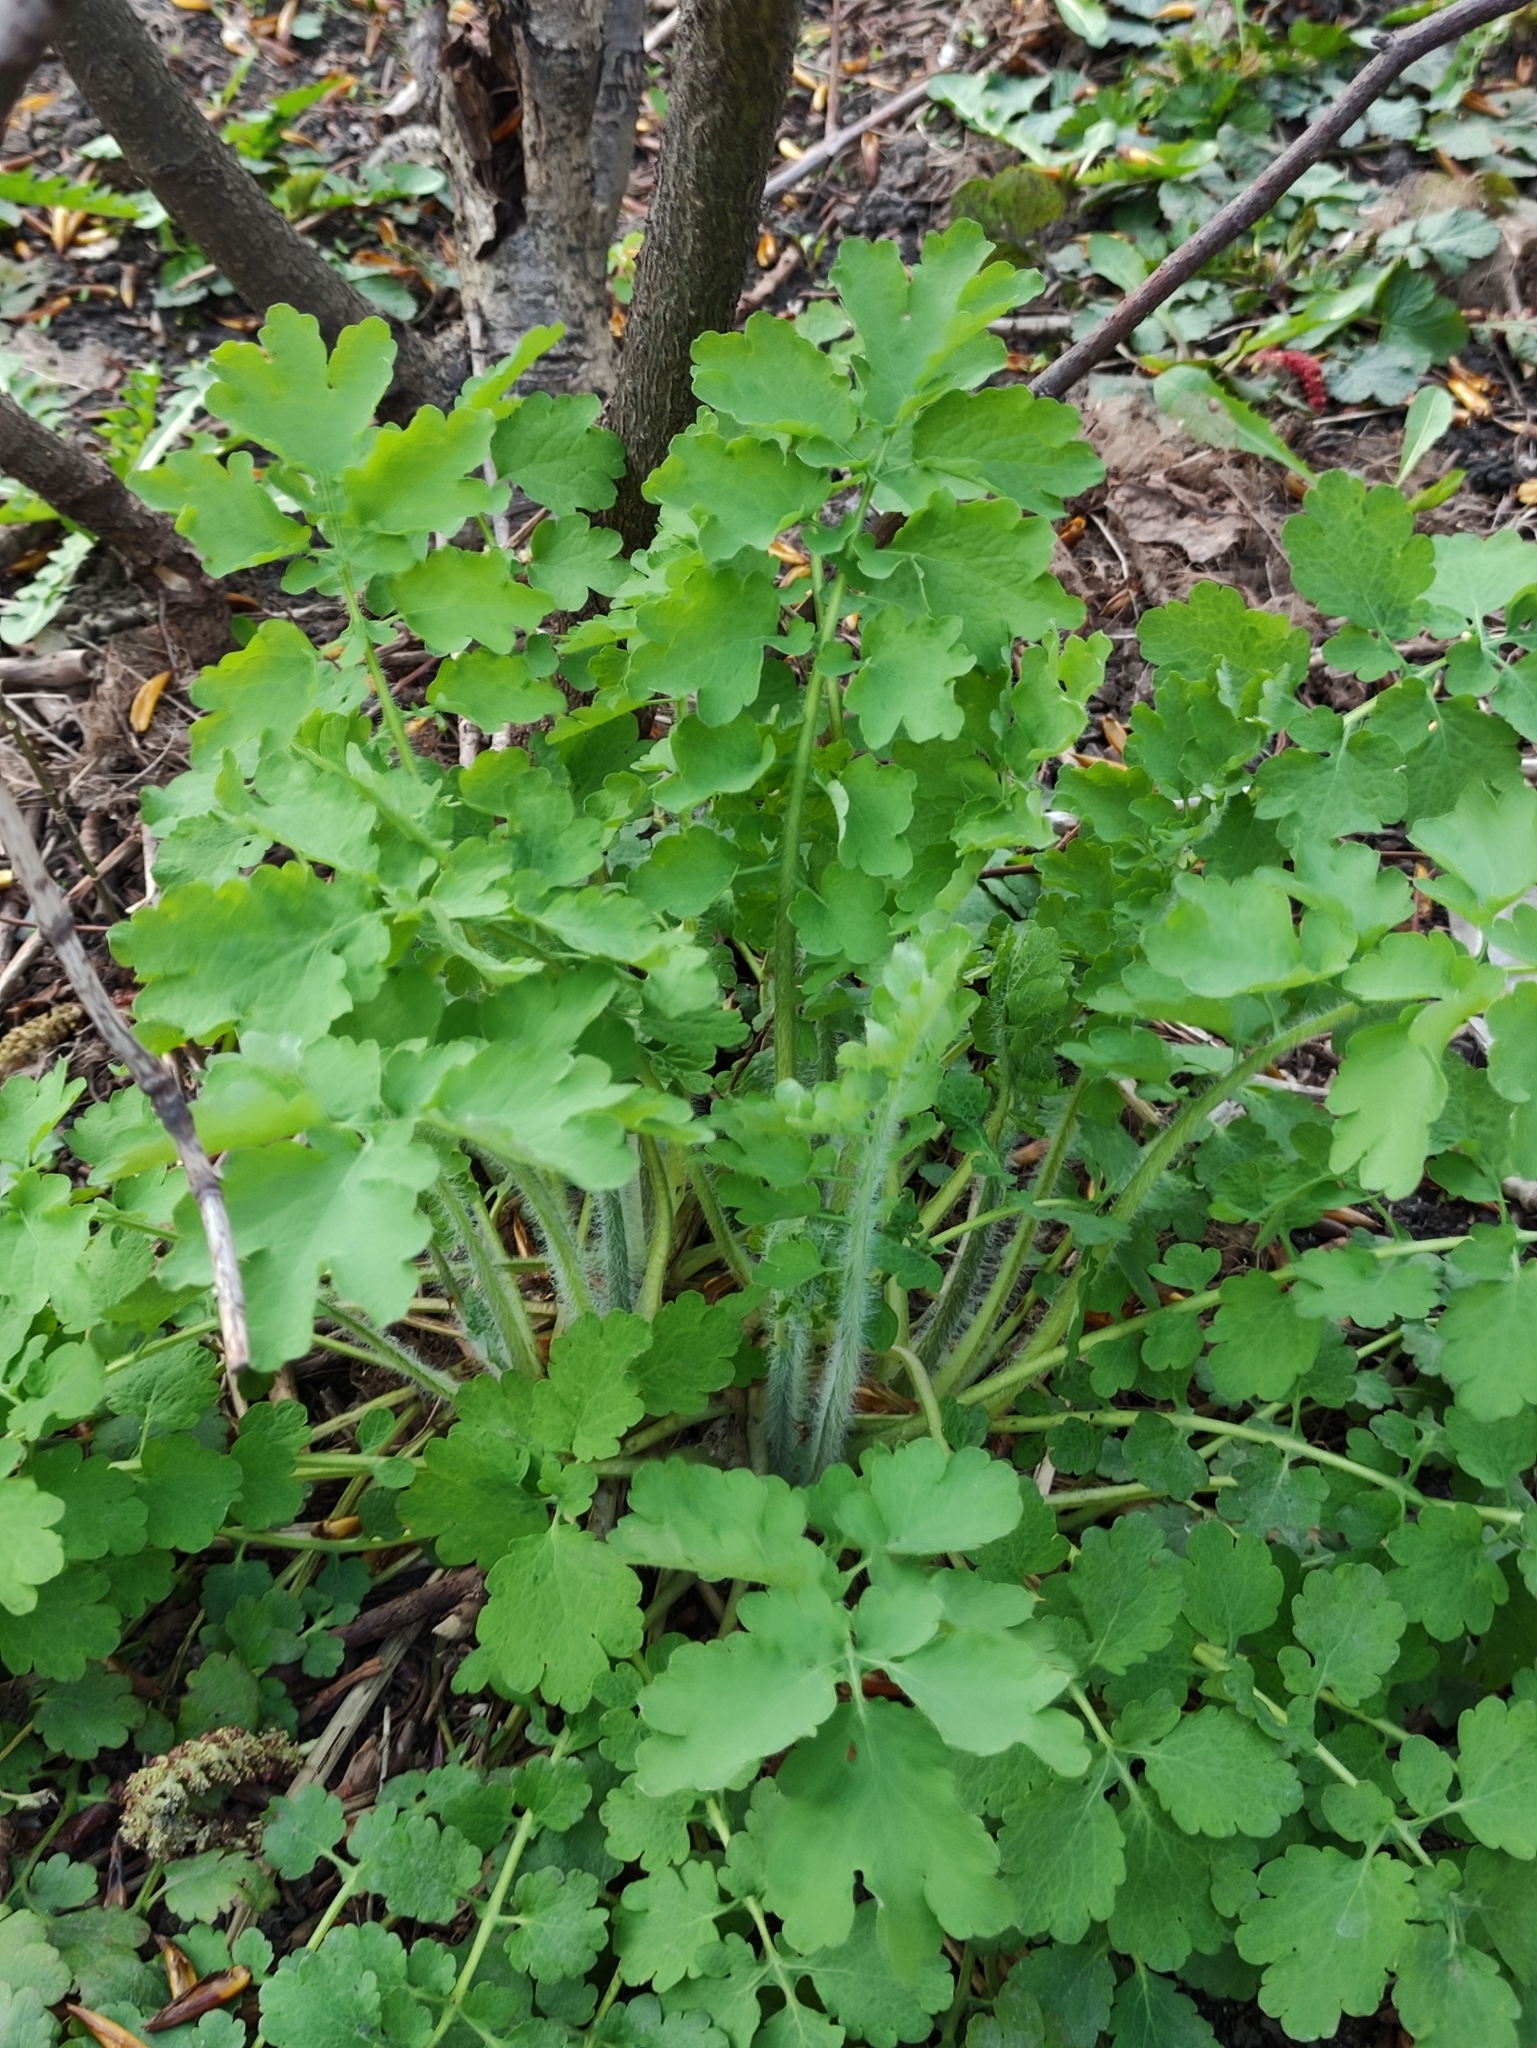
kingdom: Plantae
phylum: Tracheophyta
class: Magnoliopsida
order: Ranunculales
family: Papaveraceae
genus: Chelidonium
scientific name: Chelidonium majus
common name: Greater celandine
